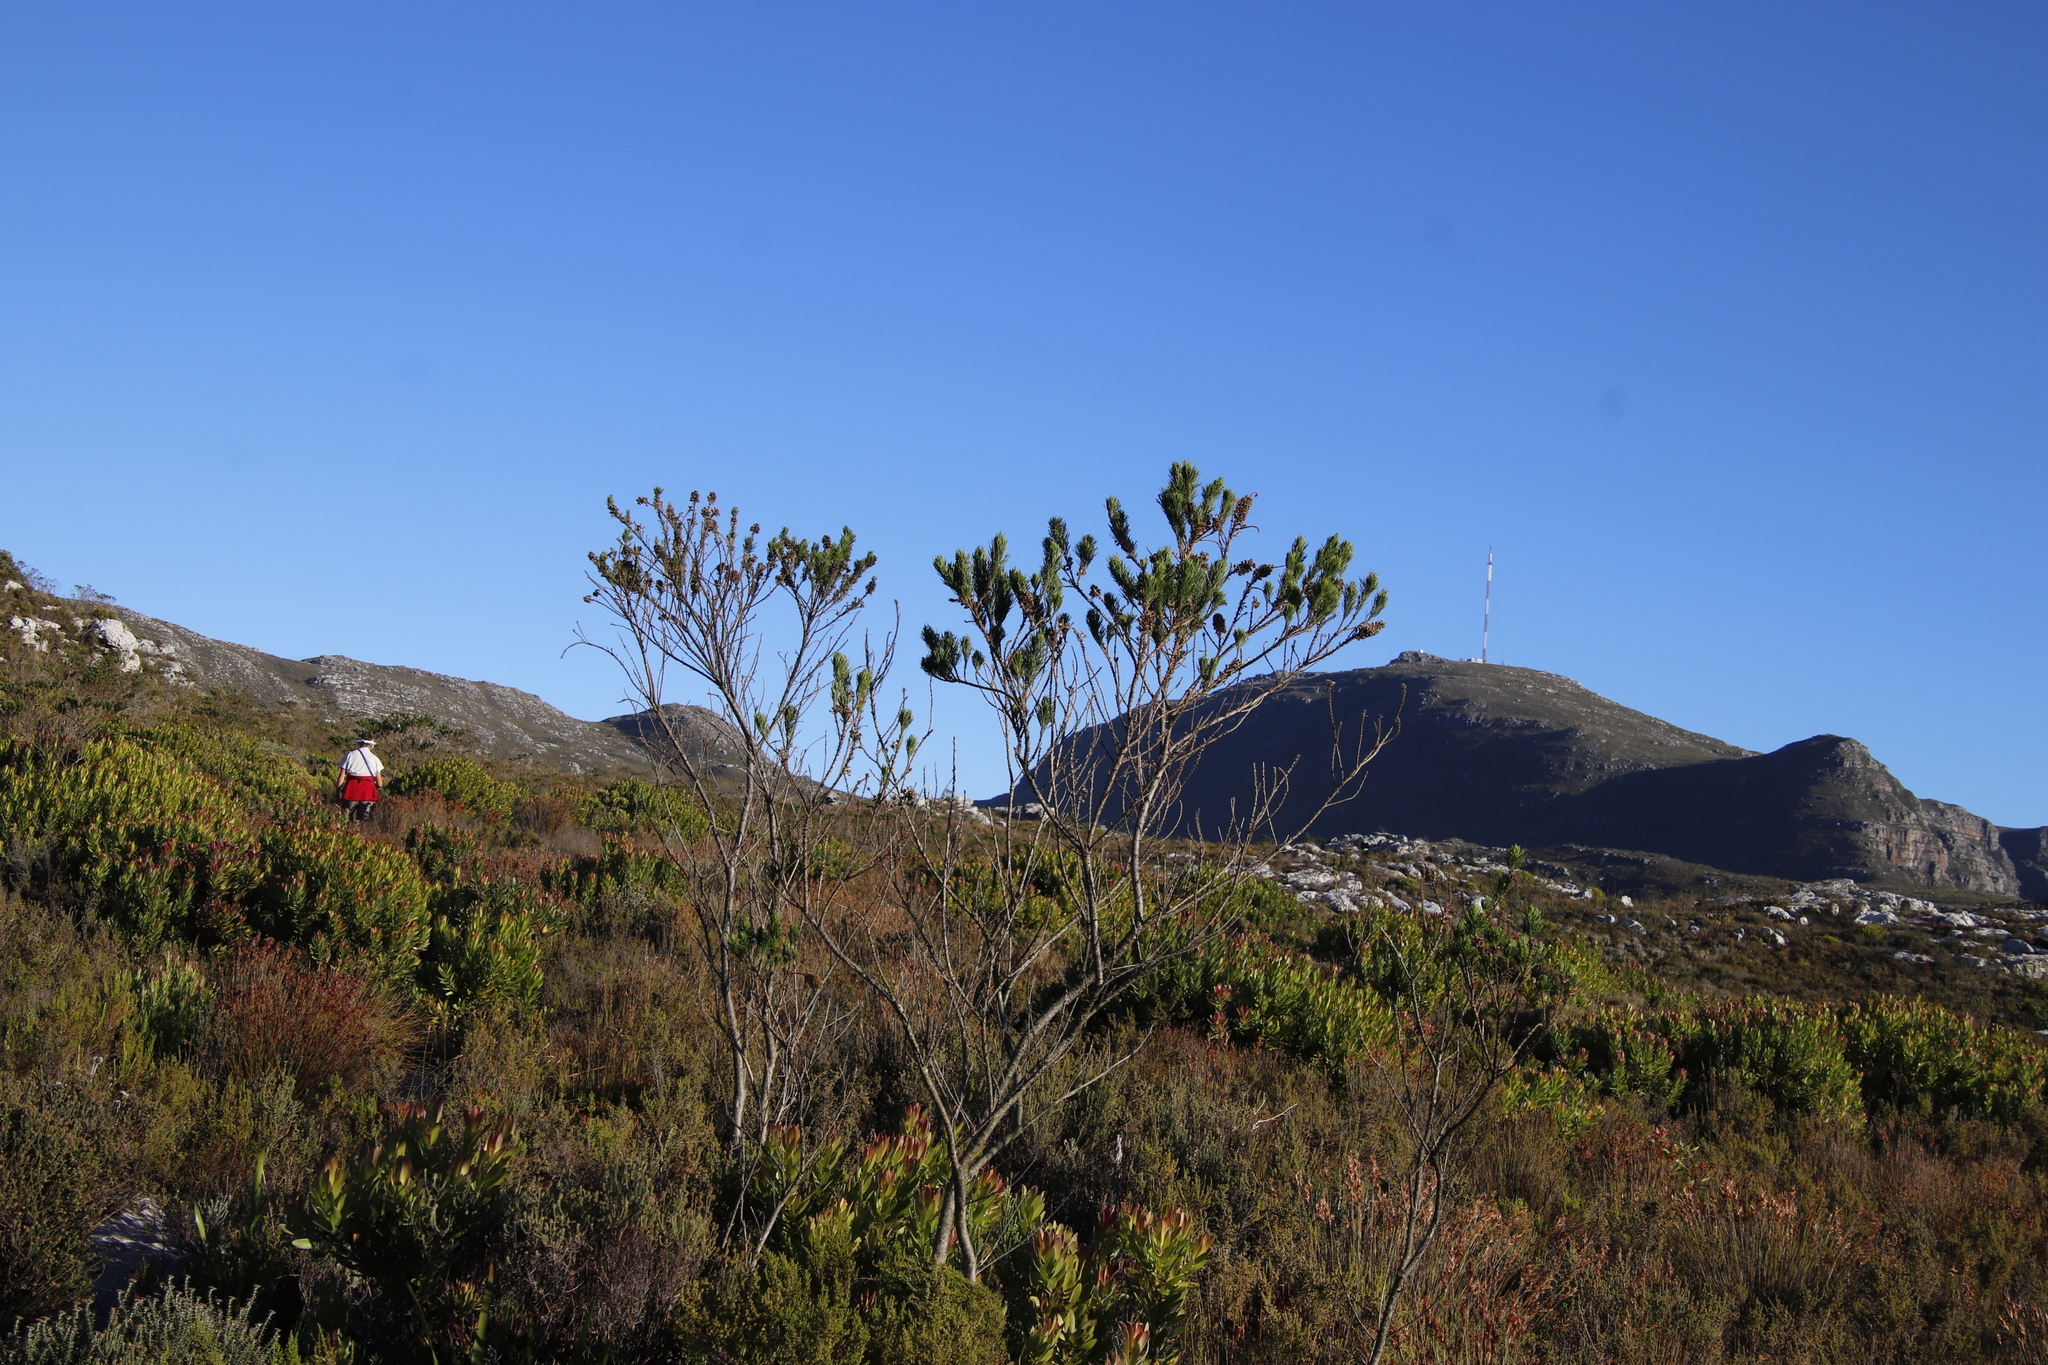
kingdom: Plantae
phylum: Tracheophyta
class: Magnoliopsida
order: Fabales
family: Fabaceae
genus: Psoralea
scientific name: Psoralea pinnata
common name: African scurfpea
